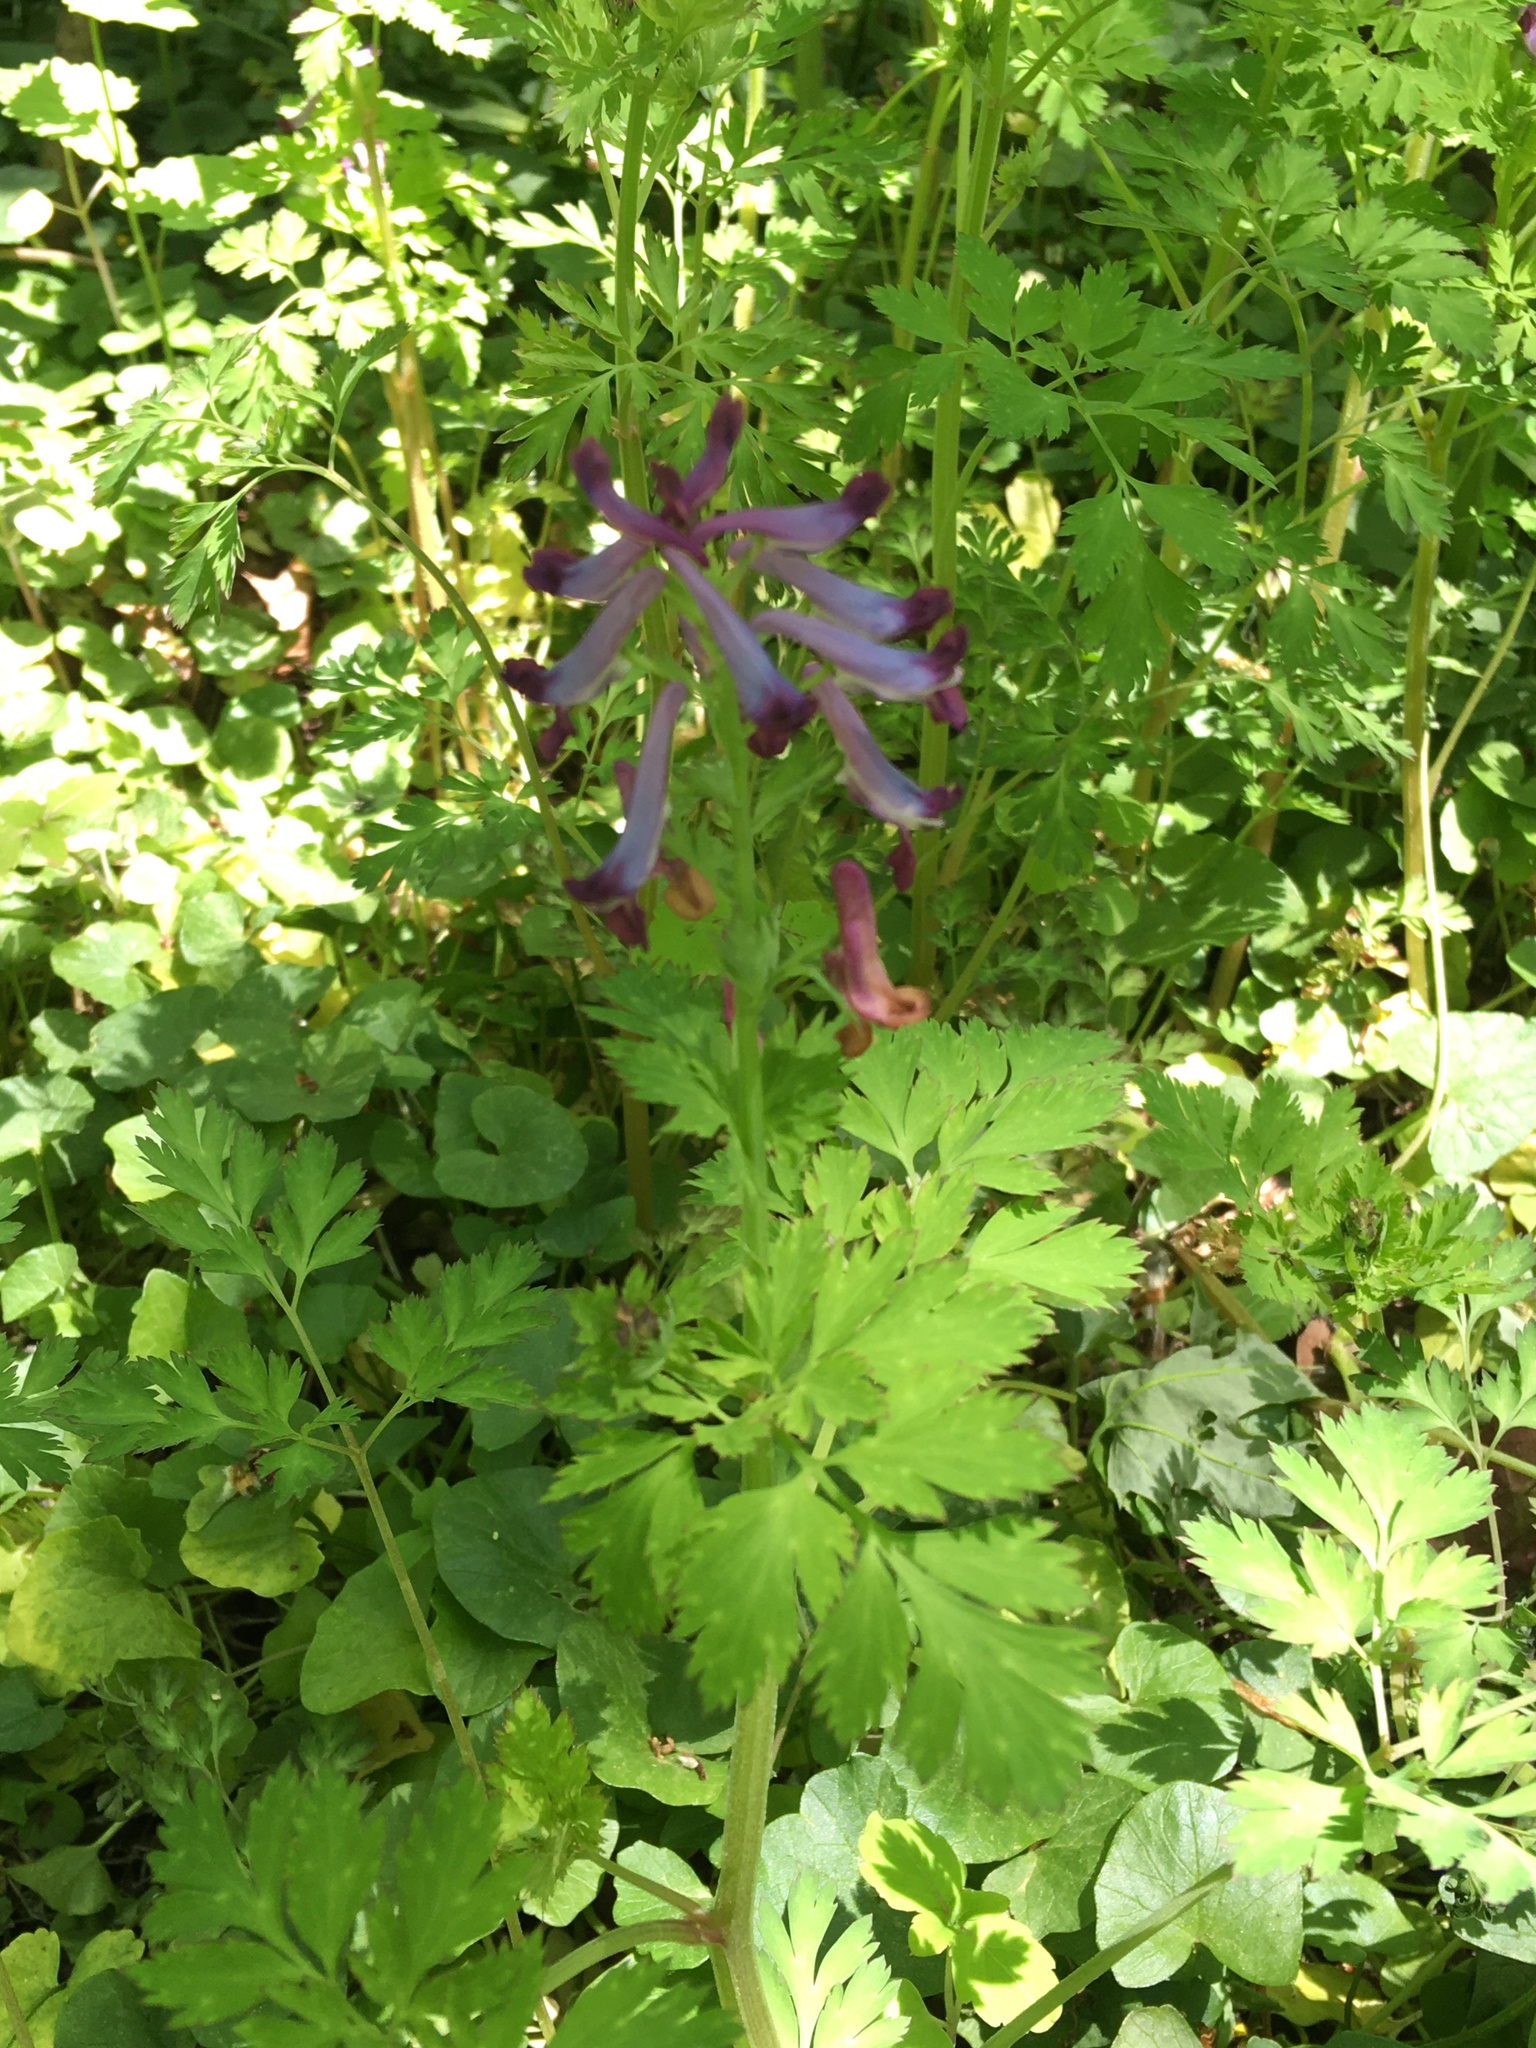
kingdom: Plantae
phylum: Tracheophyta
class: Magnoliopsida
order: Ranunculales
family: Papaveraceae
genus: Corydalis
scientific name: Corydalis incisa
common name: Incised fumewort
